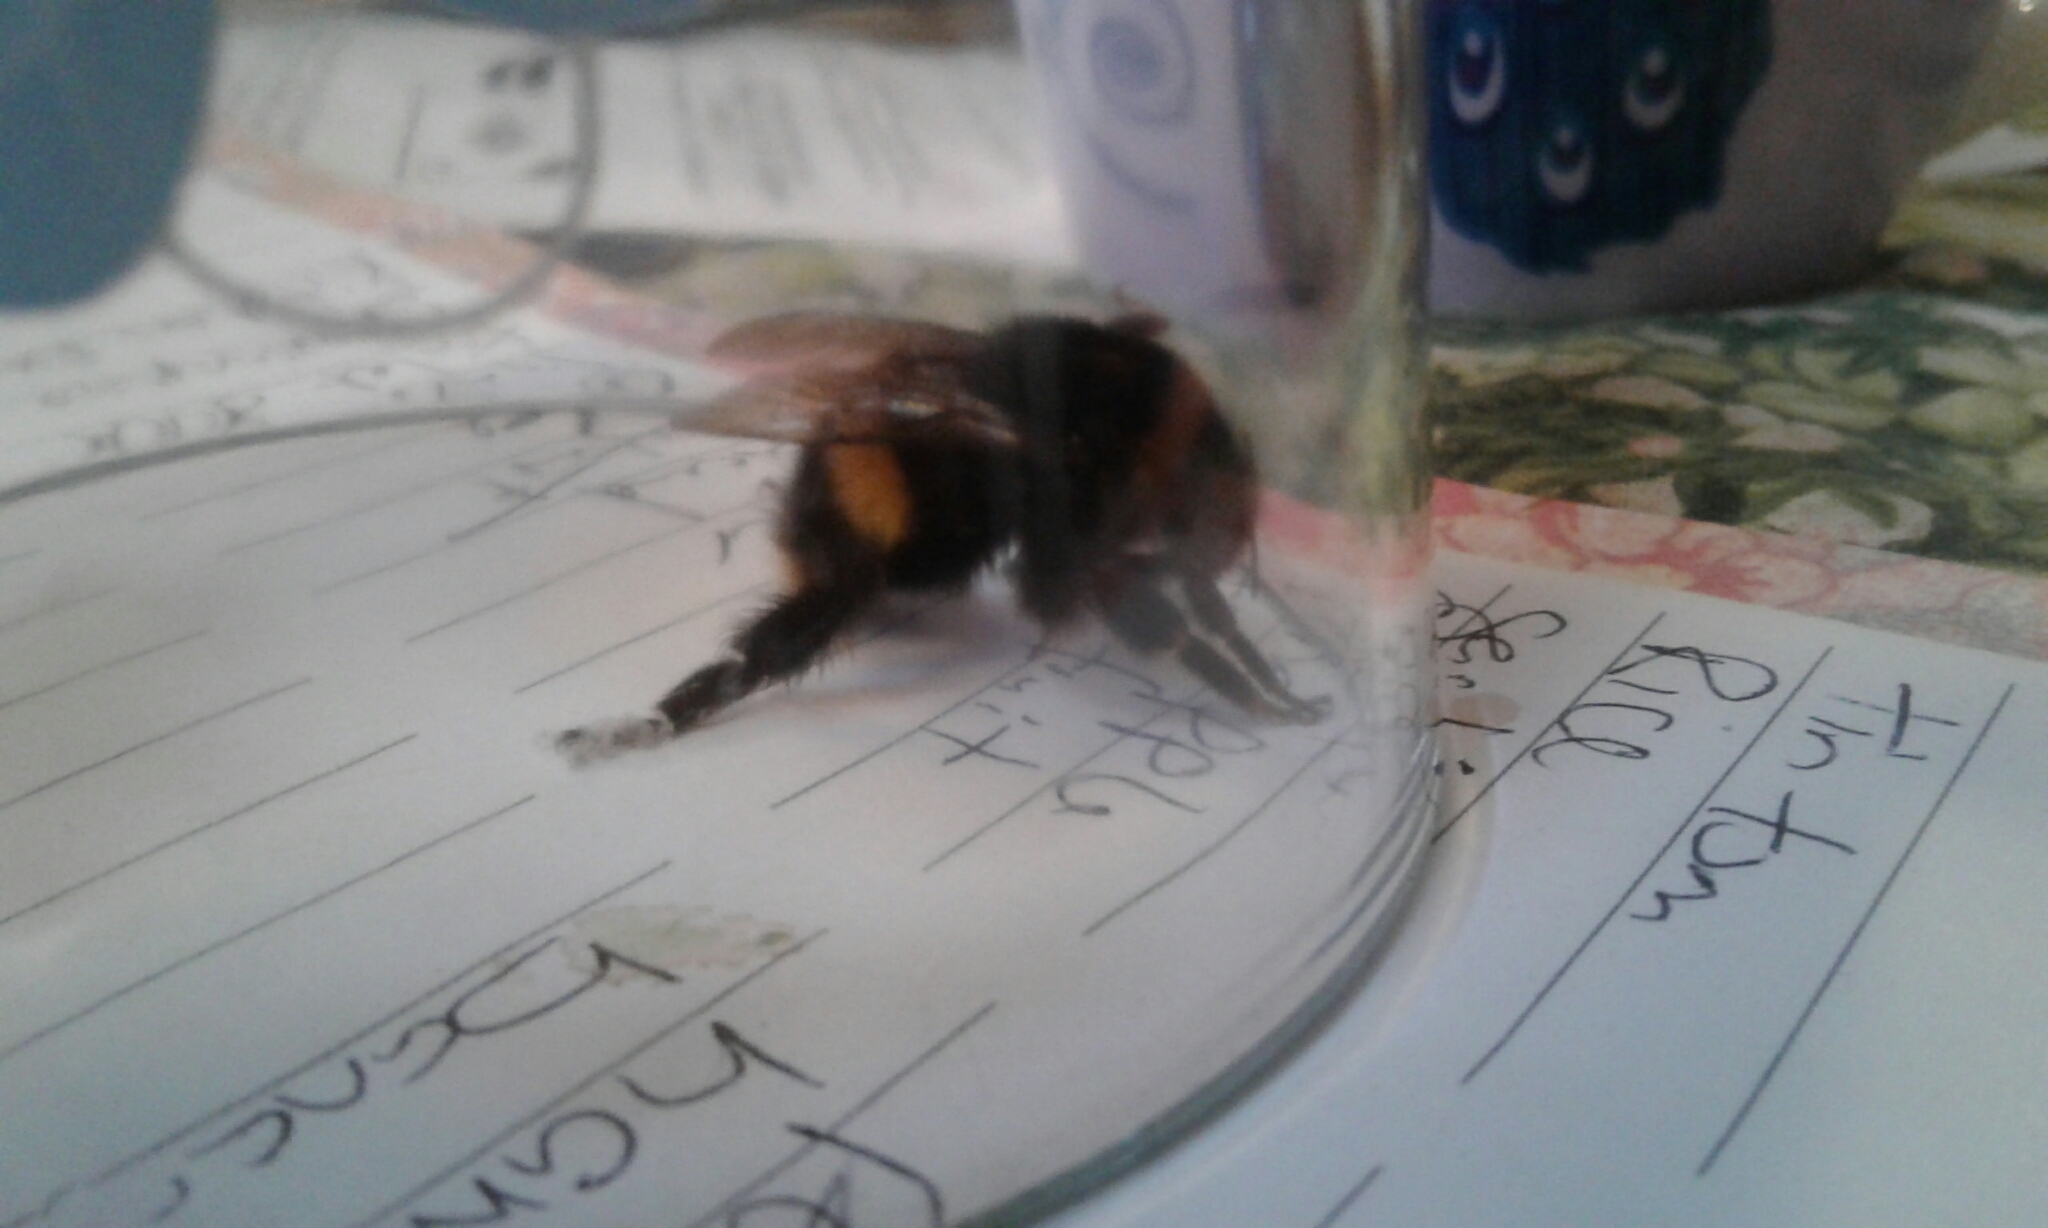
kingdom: Animalia
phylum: Arthropoda
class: Insecta
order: Hymenoptera
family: Apidae
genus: Bombus
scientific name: Bombus terrestris
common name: Buff-tailed bumblebee
